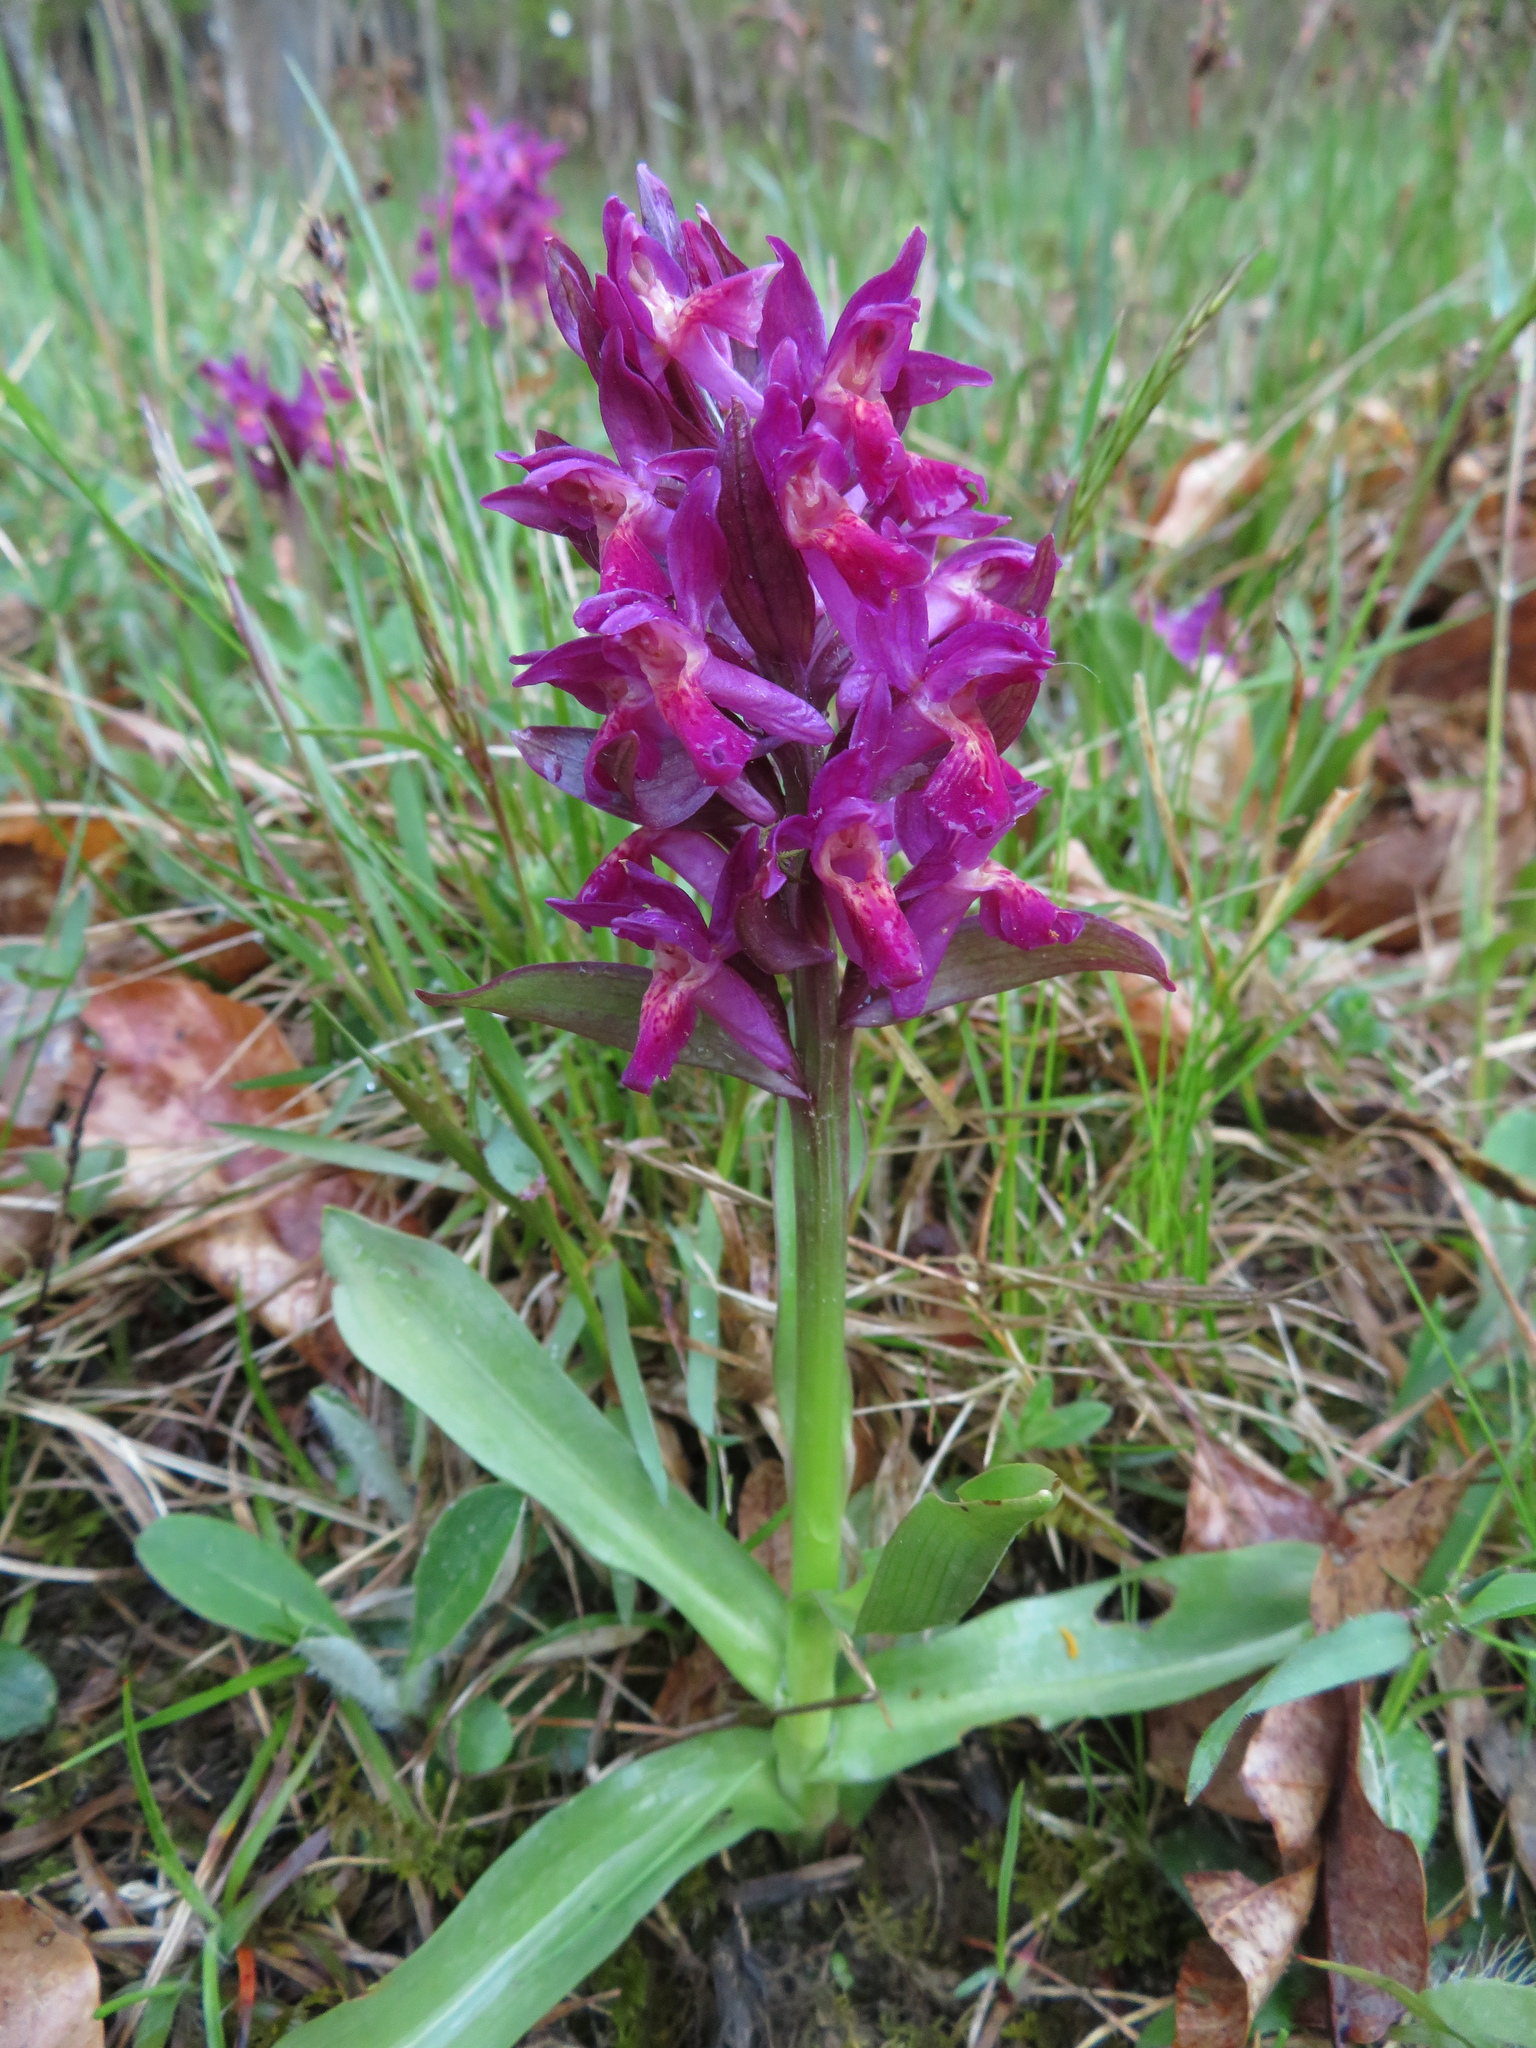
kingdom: Plantae
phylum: Tracheophyta
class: Liliopsida
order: Asparagales
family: Orchidaceae
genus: Dactylorhiza
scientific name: Dactylorhiza sambucina
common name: Elder-flowered orchid
